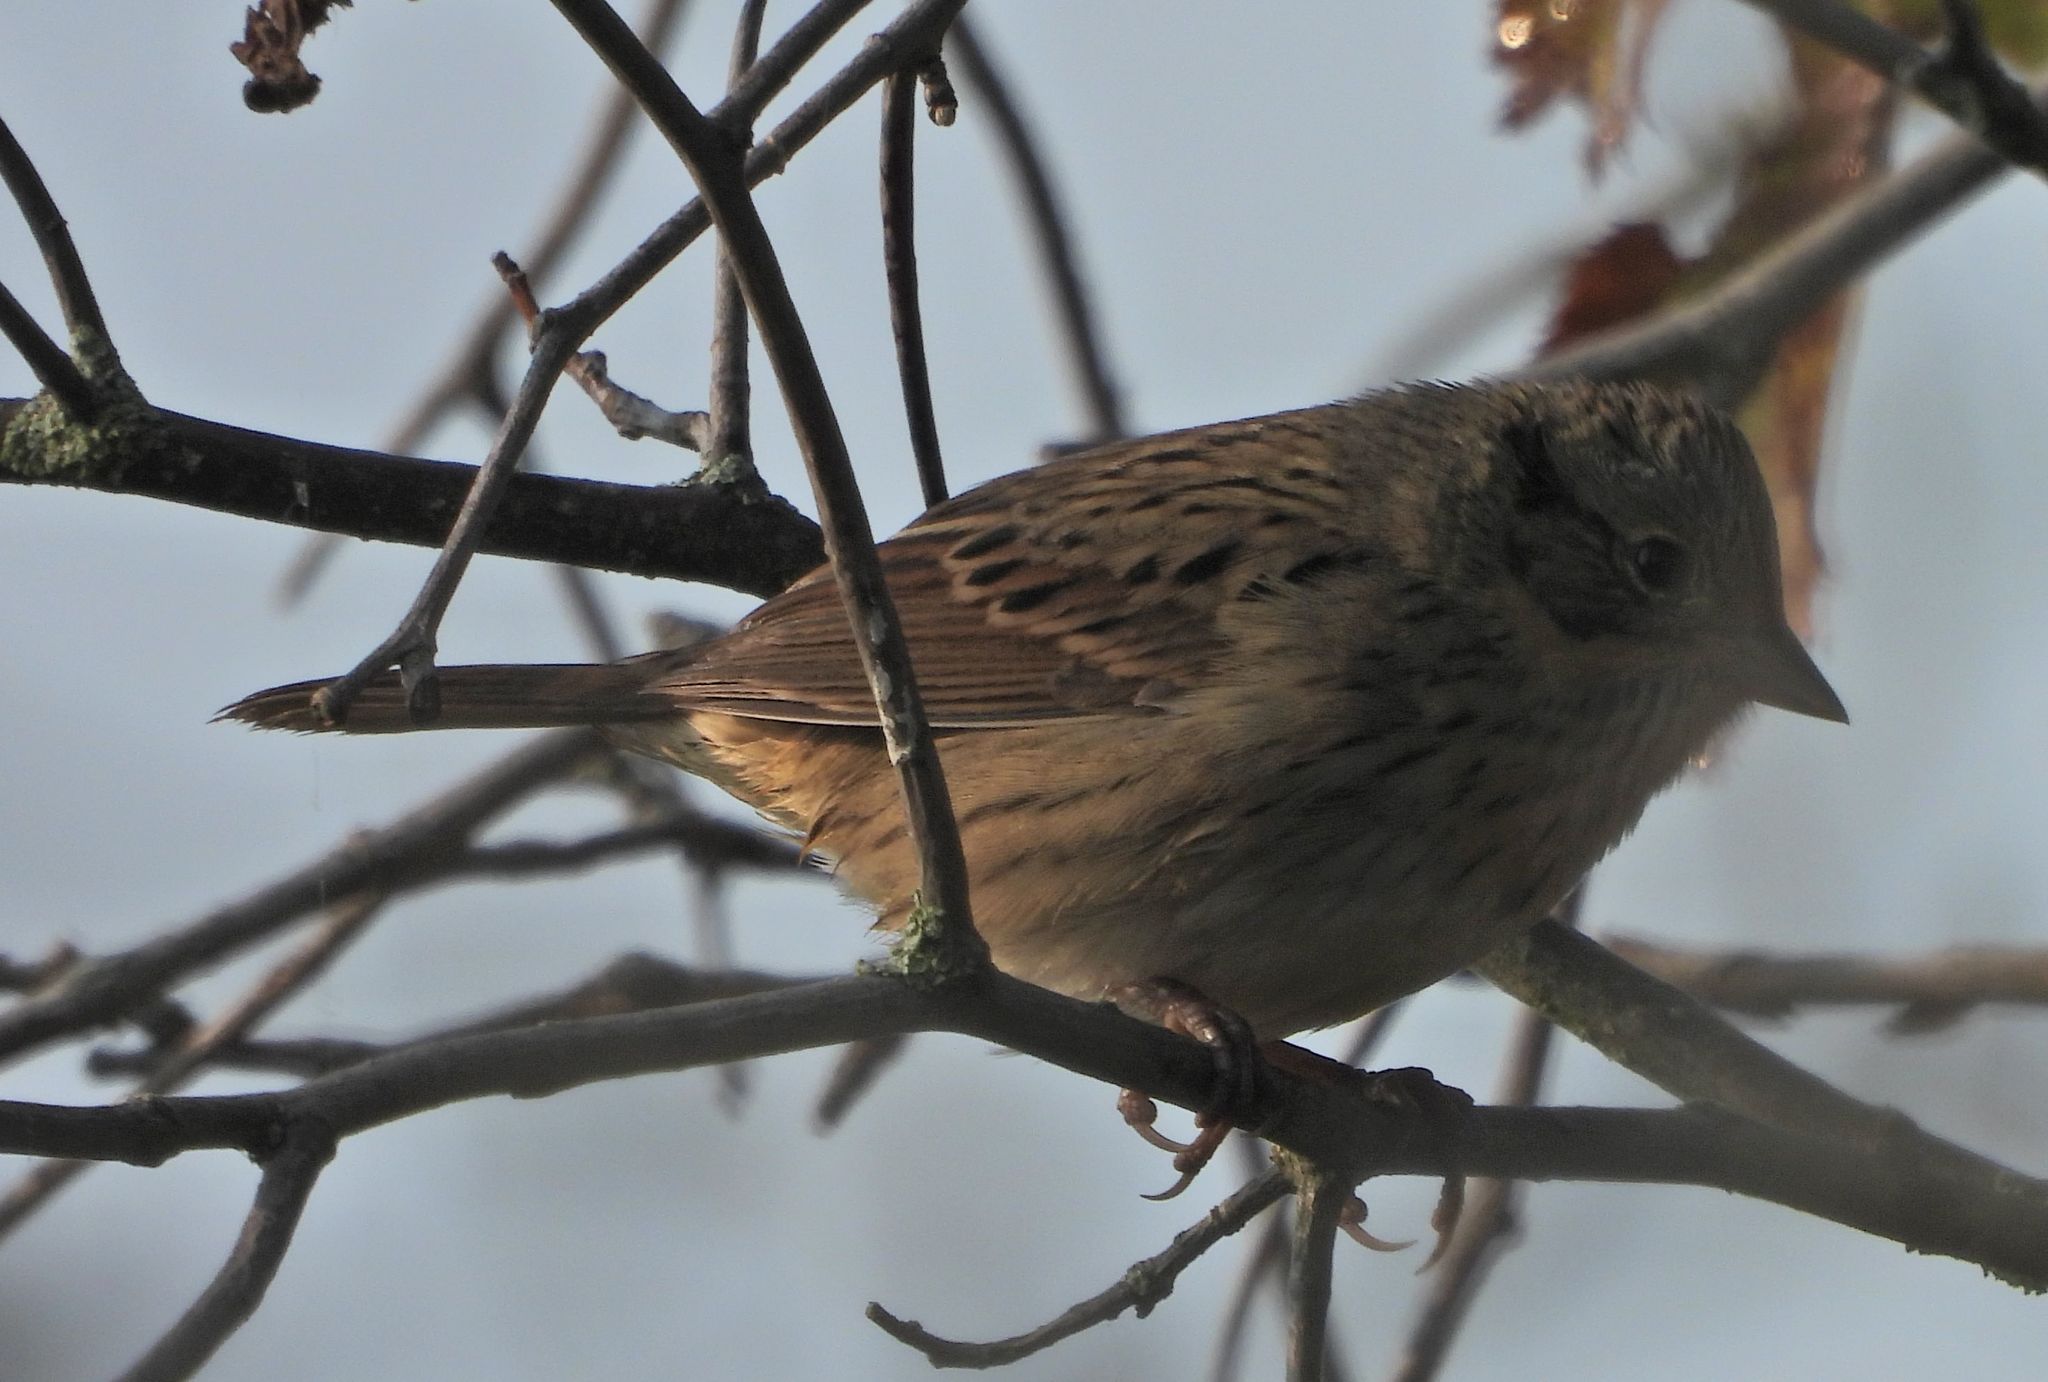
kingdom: Animalia
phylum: Chordata
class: Aves
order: Passeriformes
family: Passerellidae
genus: Melospiza
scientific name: Melospiza lincolnii
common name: Lincoln's sparrow
